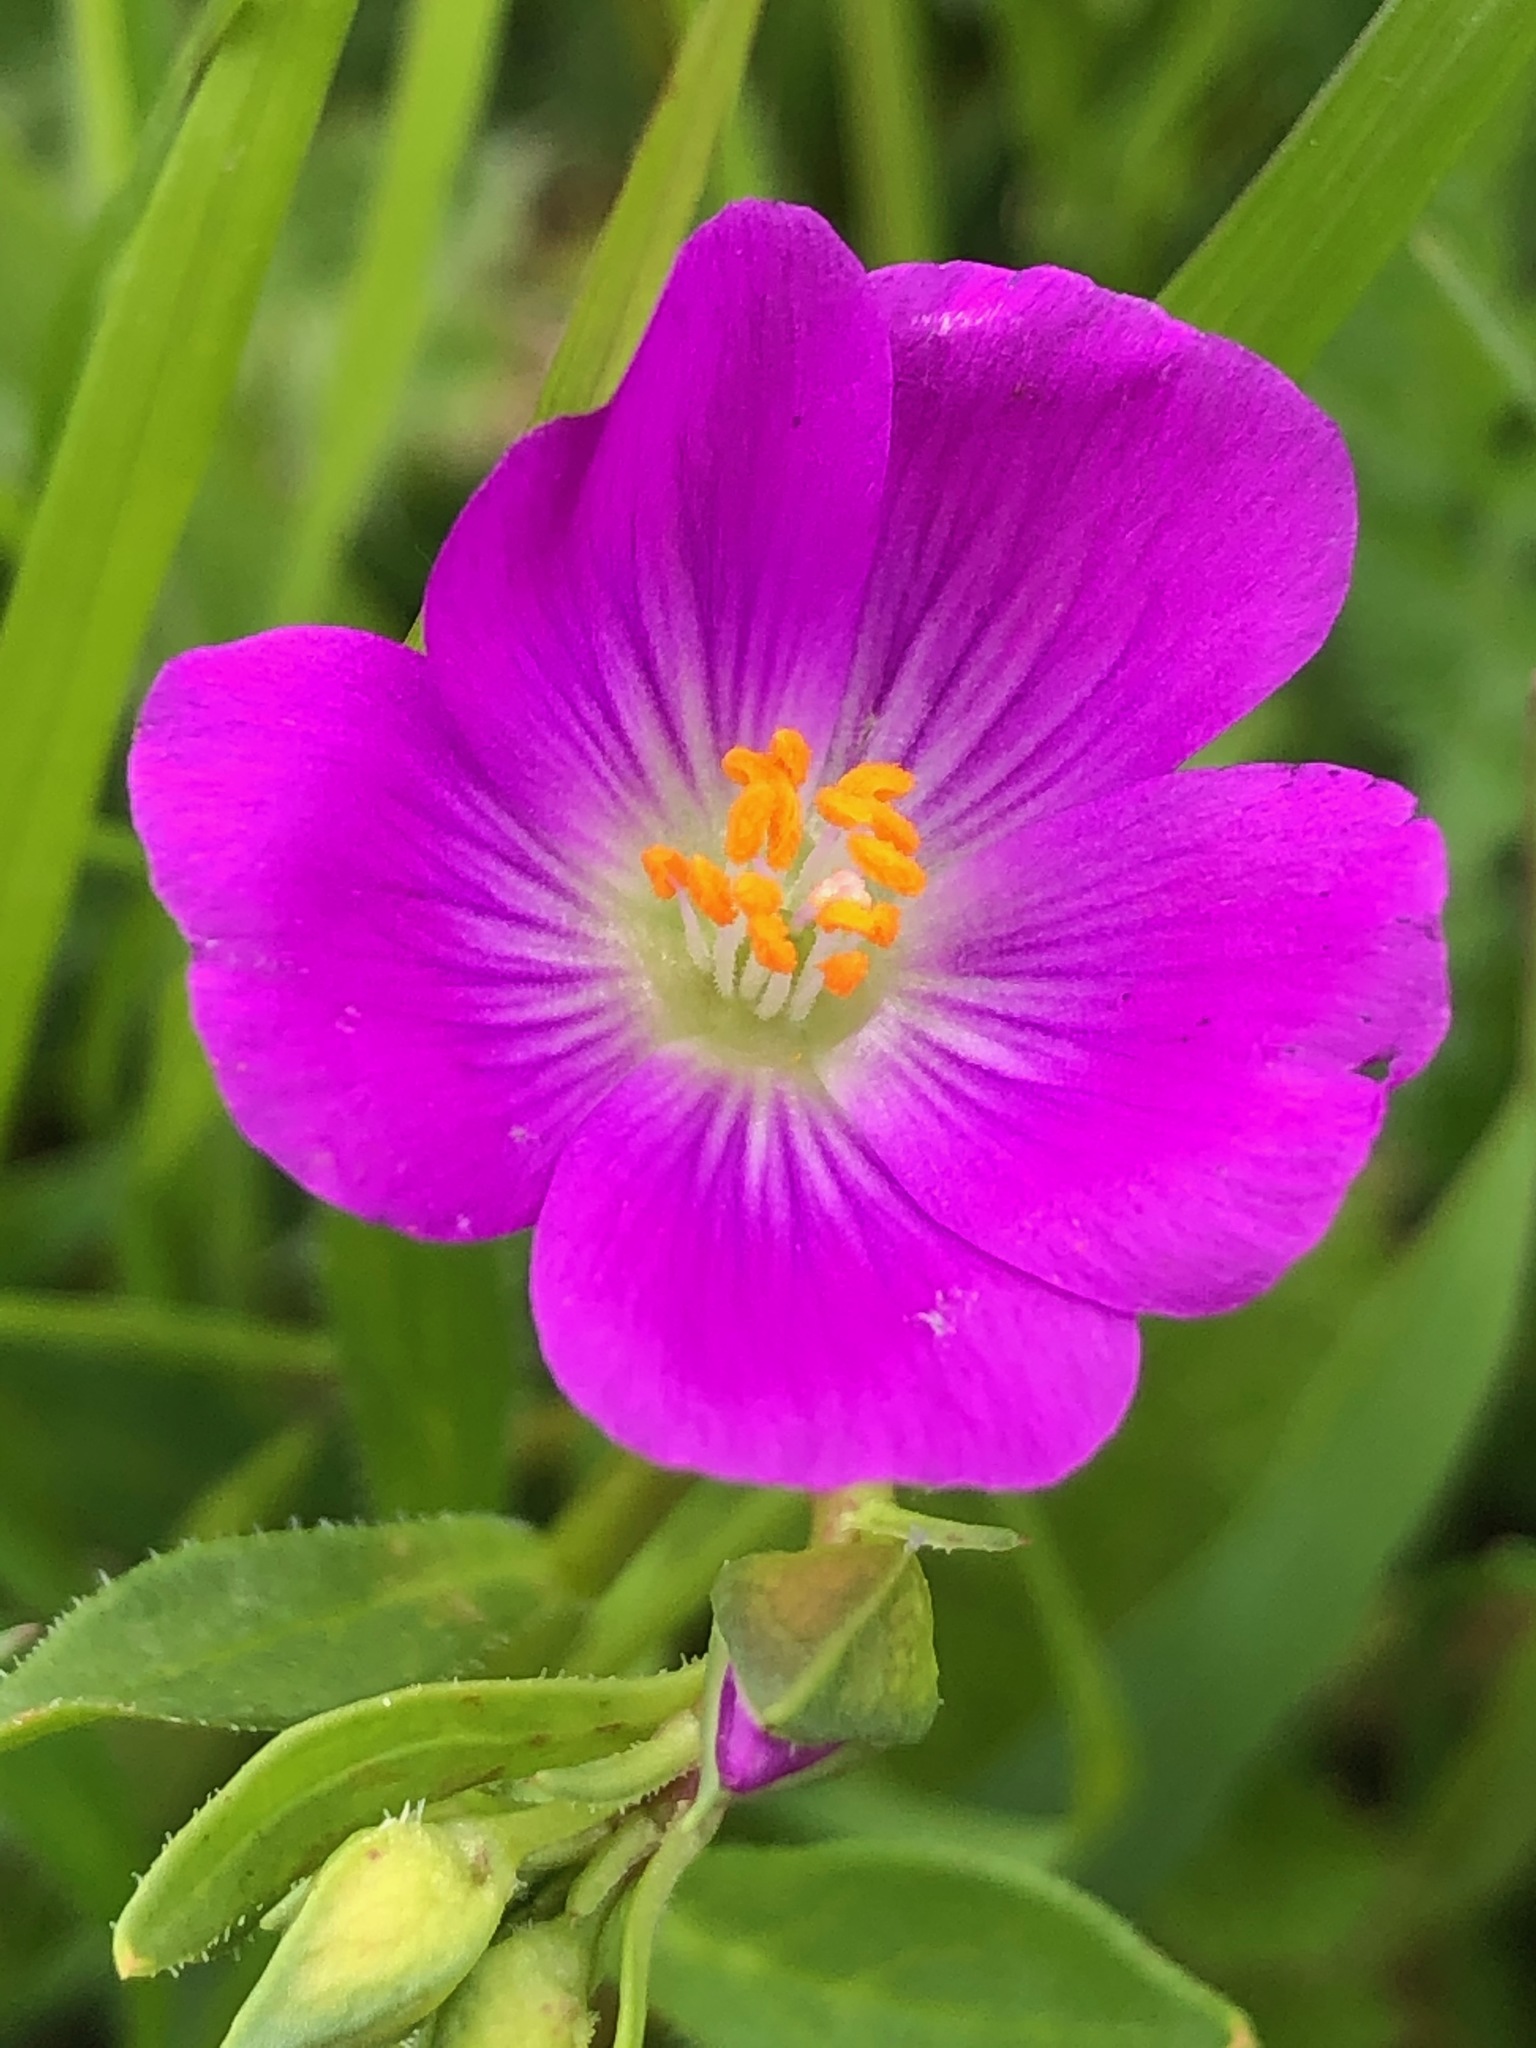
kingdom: Plantae
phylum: Tracheophyta
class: Magnoliopsida
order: Caryophyllales
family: Montiaceae
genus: Calandrinia
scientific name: Calandrinia menziesii
